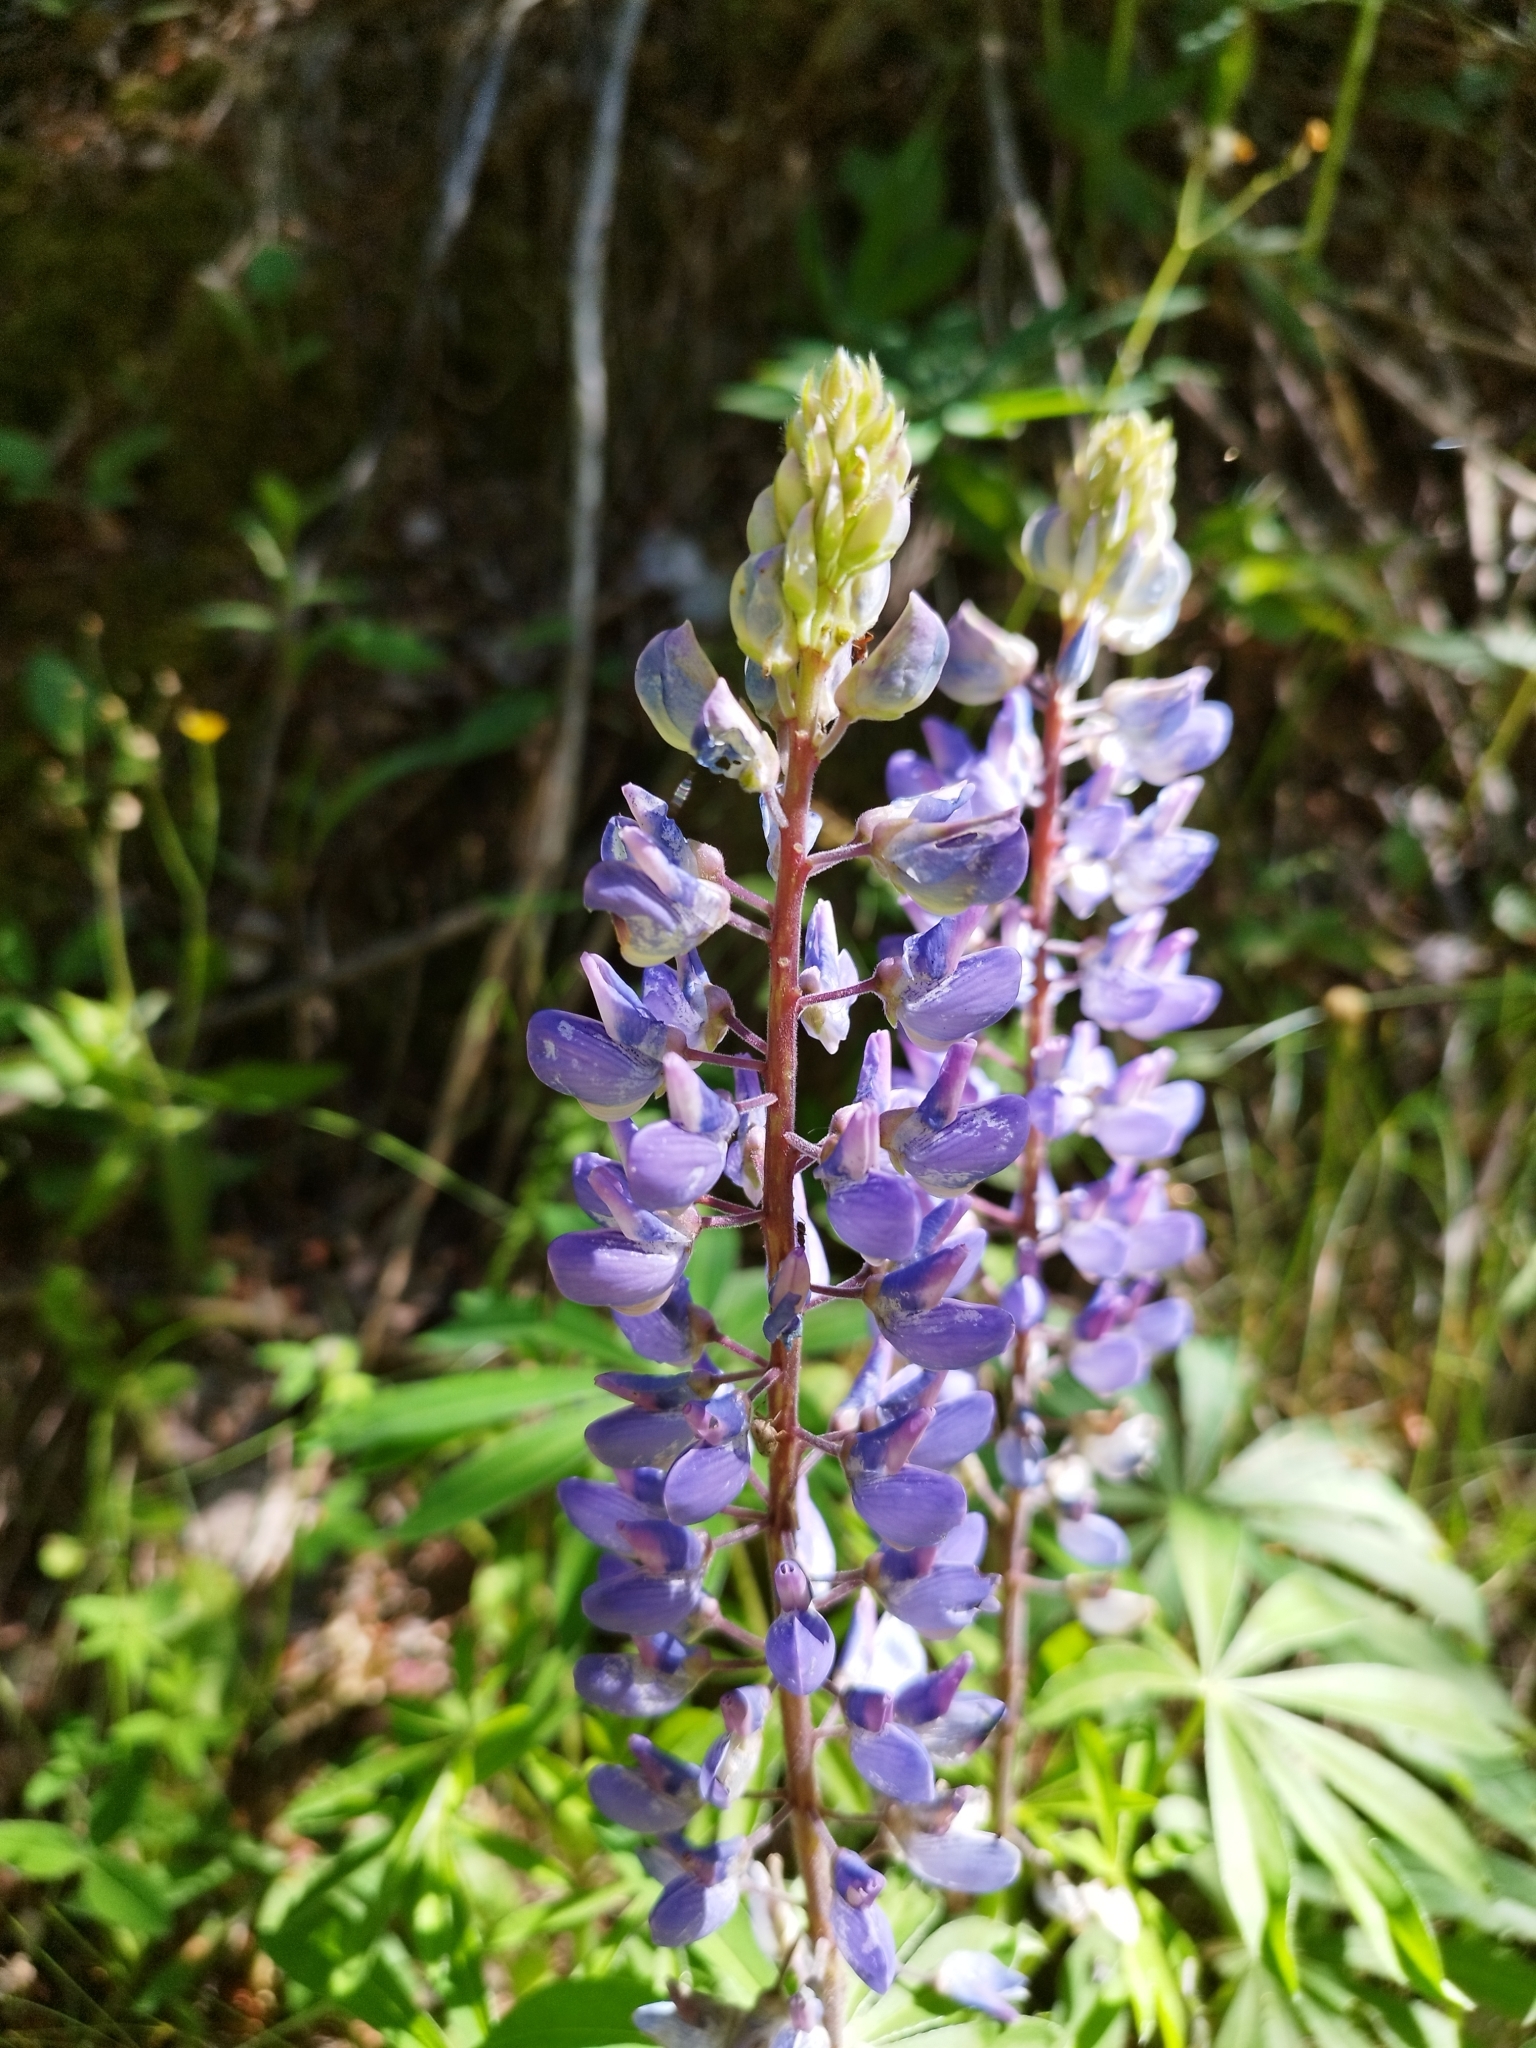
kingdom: Plantae
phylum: Tracheophyta
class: Magnoliopsida
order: Fabales
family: Fabaceae
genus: Lupinus
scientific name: Lupinus polyphyllus
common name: Garden lupin
